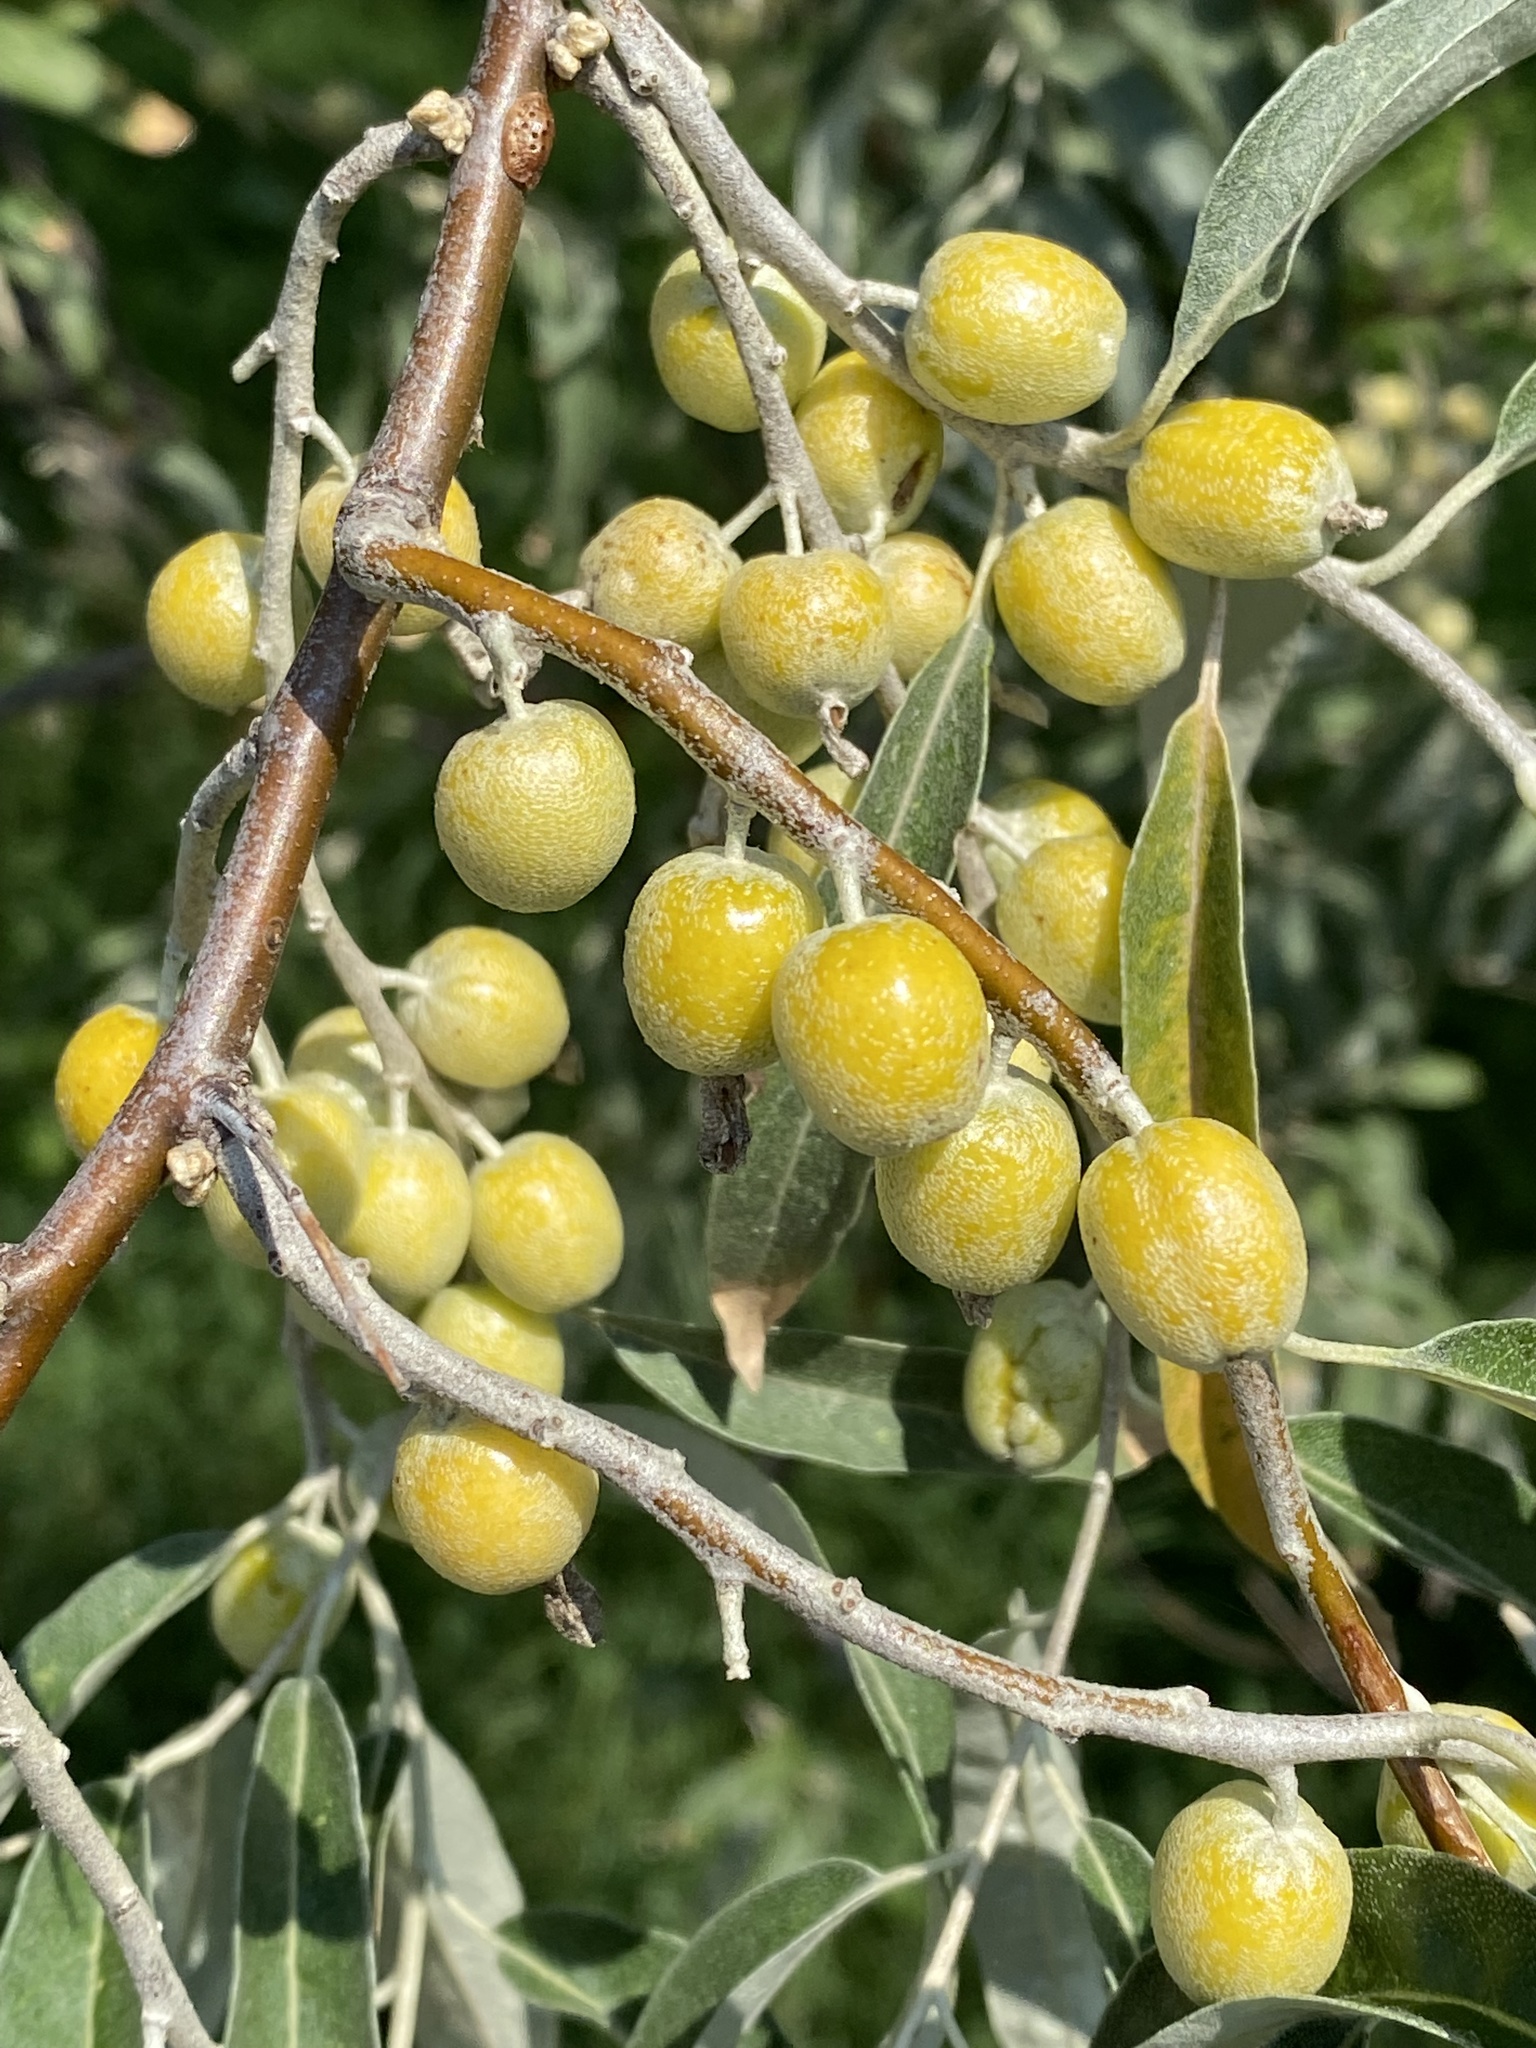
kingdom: Plantae
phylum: Tracheophyta
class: Magnoliopsida
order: Rosales
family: Elaeagnaceae
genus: Elaeagnus
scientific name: Elaeagnus angustifolia
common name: Russian olive
